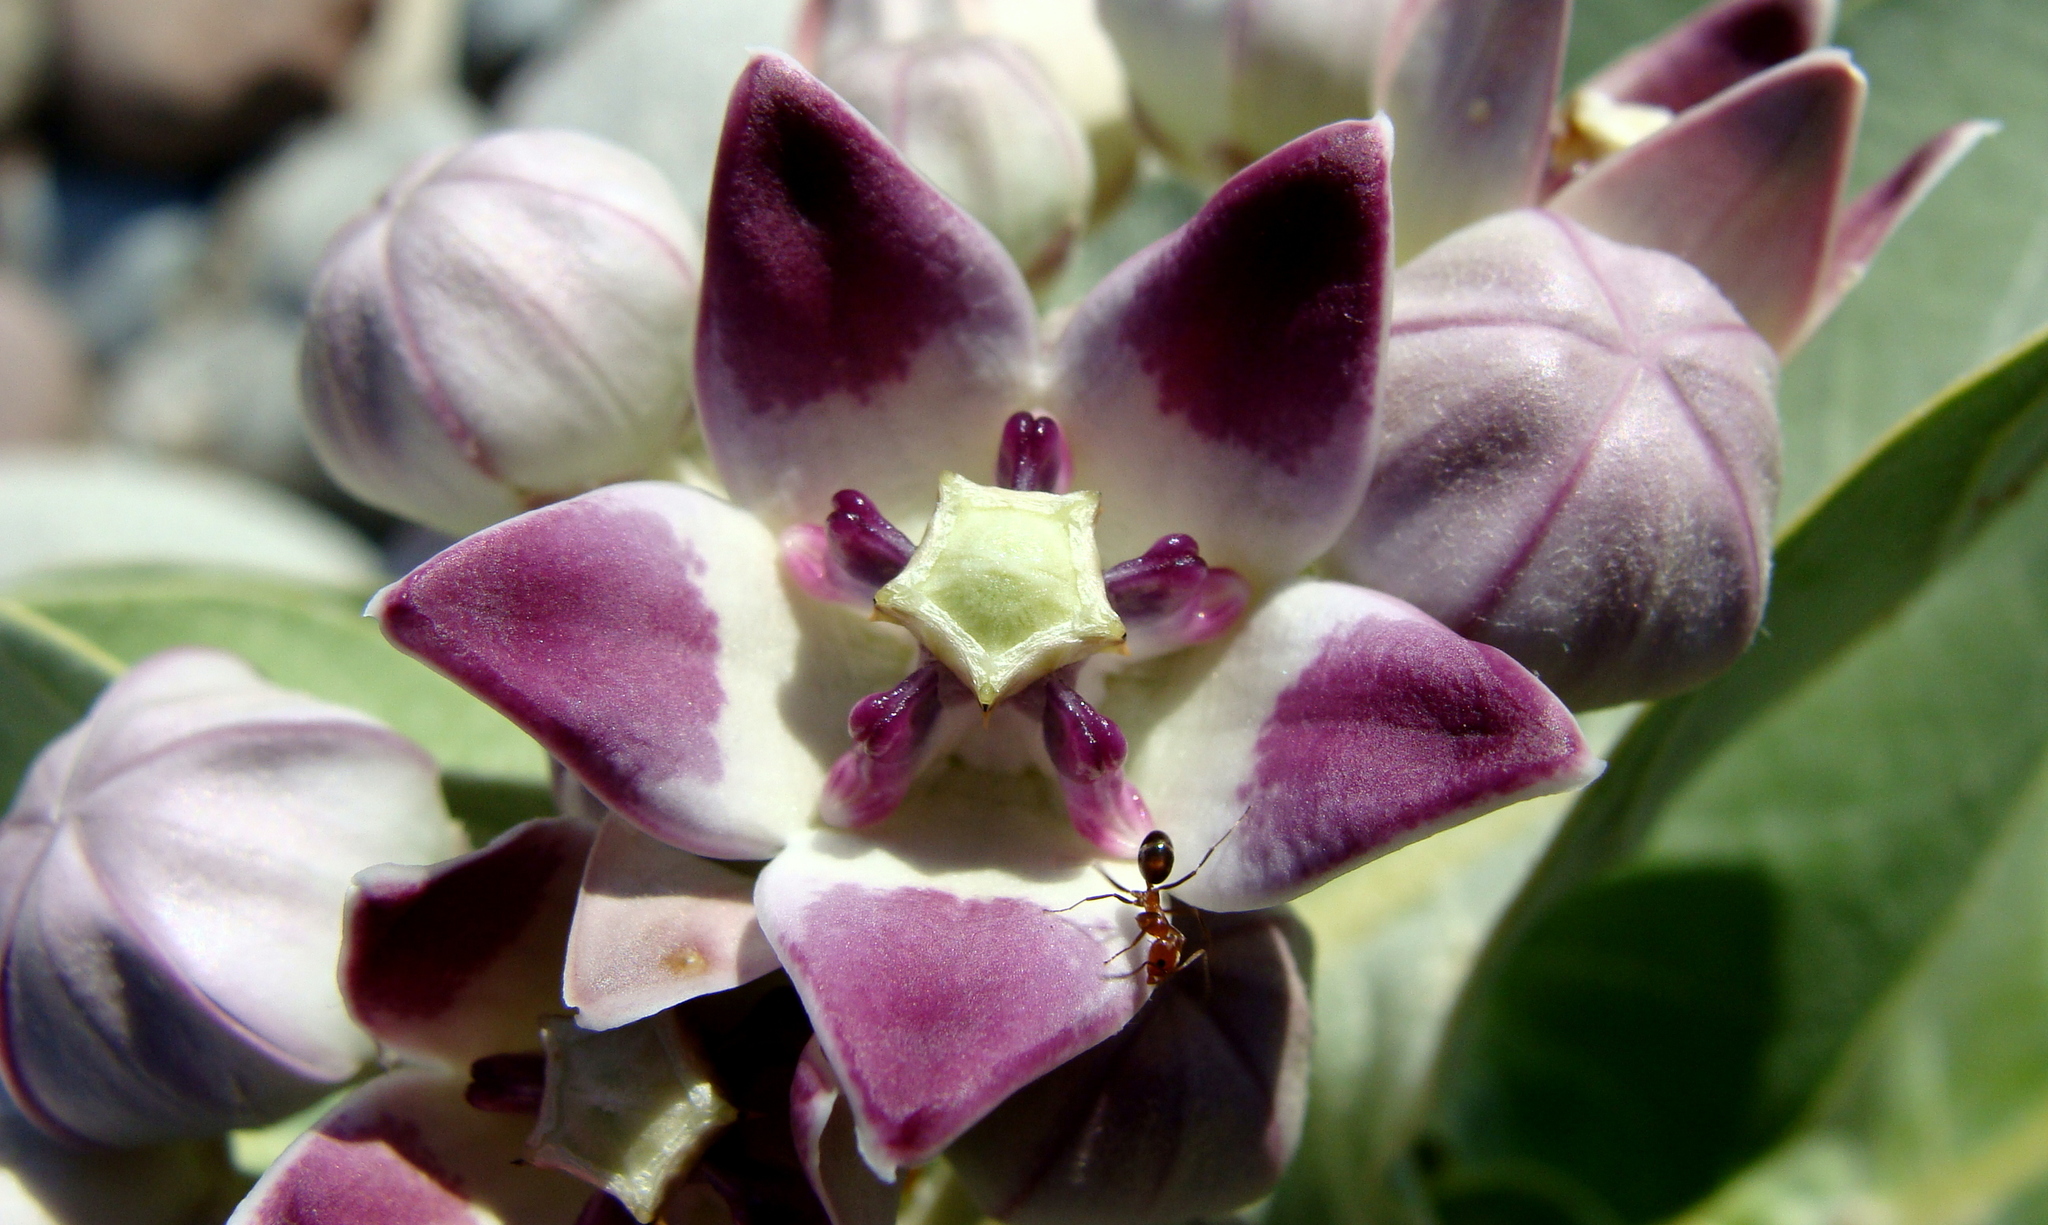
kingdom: Plantae
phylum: Tracheophyta
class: Magnoliopsida
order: Gentianales
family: Apocynaceae
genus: Calotropis
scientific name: Calotropis procera
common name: Roostertree
